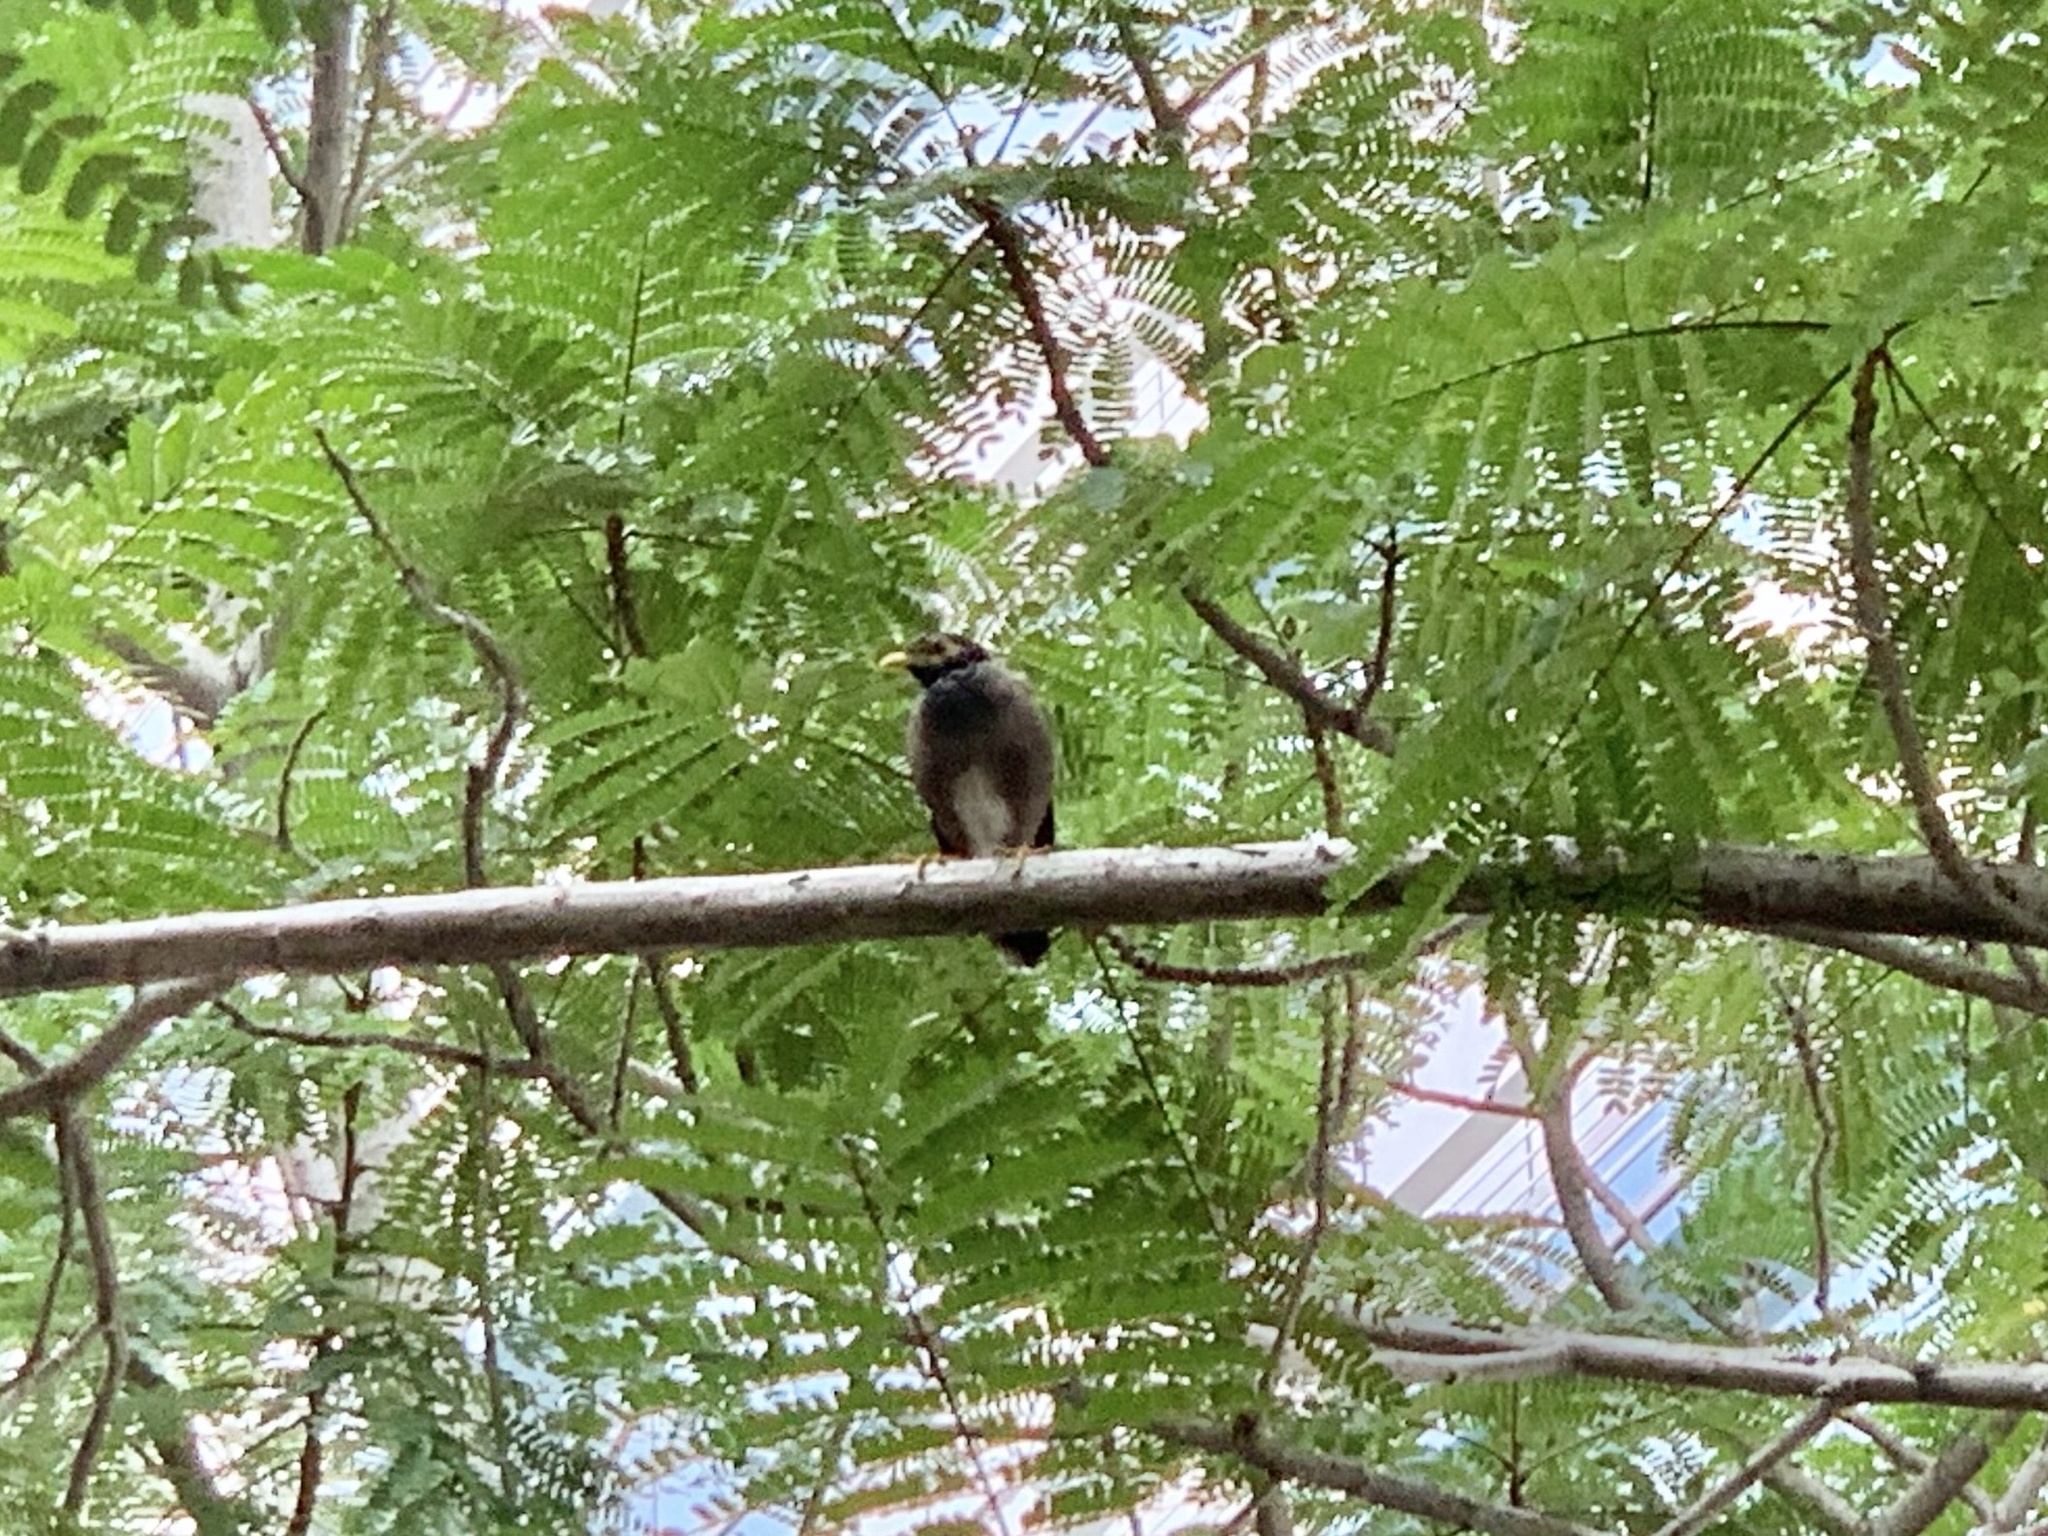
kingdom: Animalia
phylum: Chordata
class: Aves
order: Passeriformes
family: Sturnidae
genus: Acridotheres
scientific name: Acridotheres tristis
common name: Common myna
